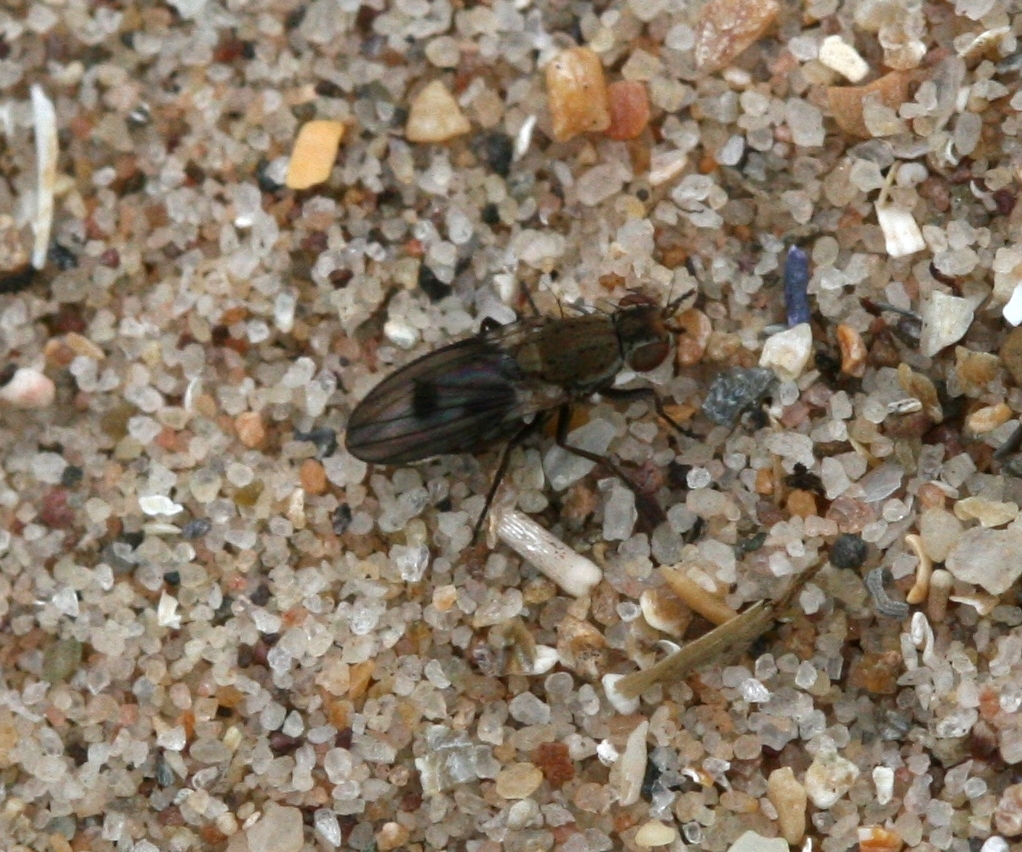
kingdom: Animalia
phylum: Arthropoda
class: Insecta
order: Diptera
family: Heleomyzidae
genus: Trixoscelis
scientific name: Trixoscelis obscurella
